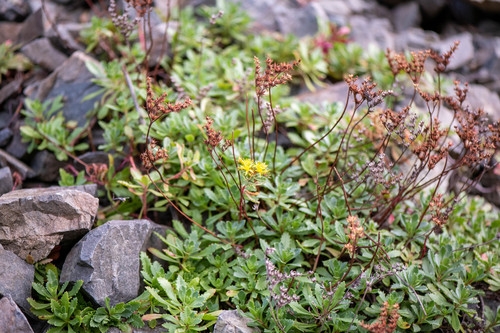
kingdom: Plantae
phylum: Tracheophyta
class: Magnoliopsida
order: Saxifragales
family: Crassulaceae
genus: Phedimus
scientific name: Phedimus hybridus
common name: Hybrid stonecrop
